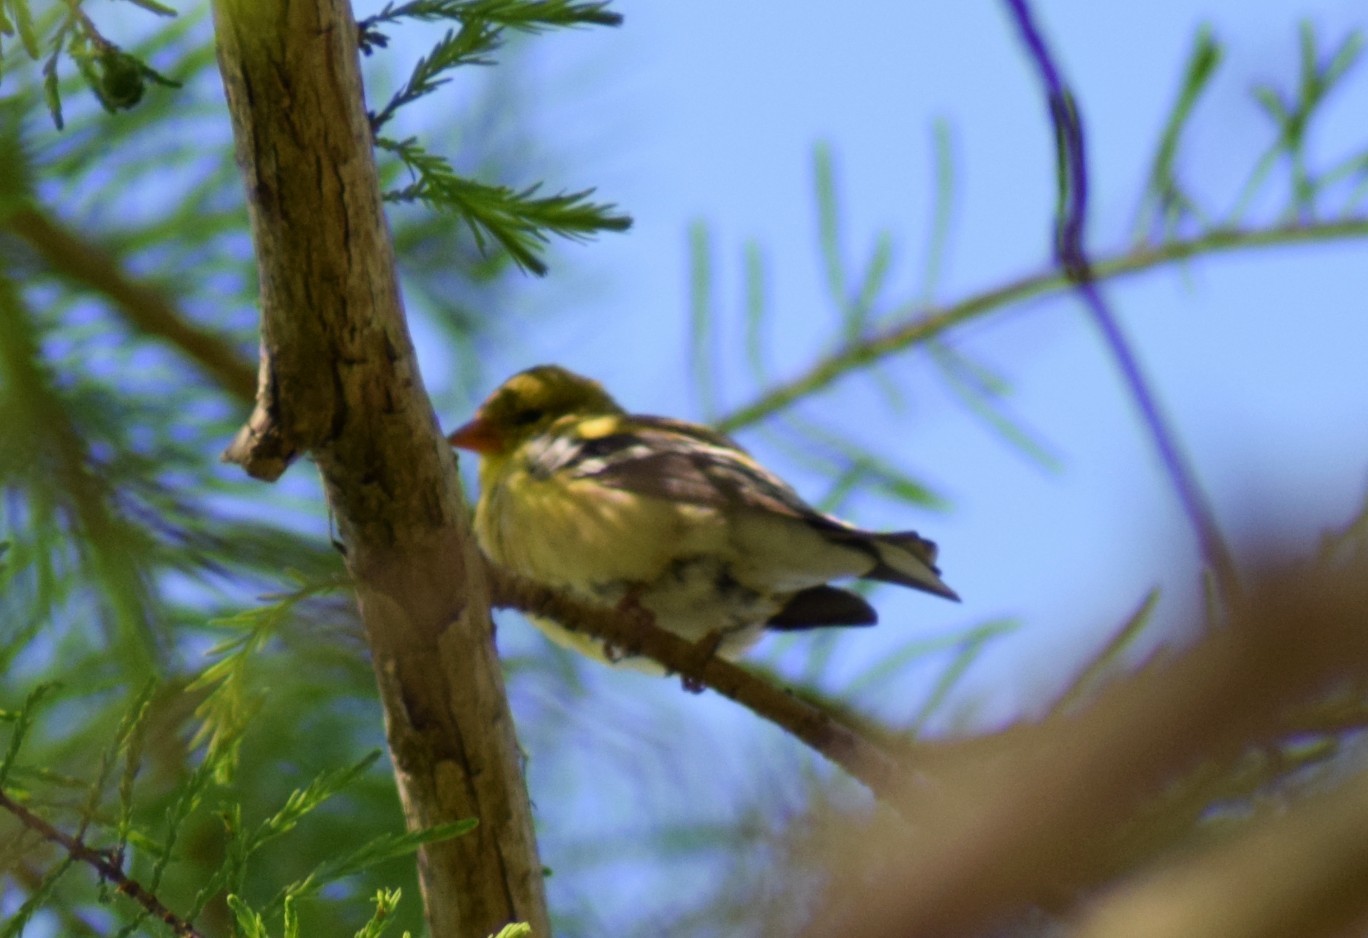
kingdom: Animalia
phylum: Chordata
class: Aves
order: Passeriformes
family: Fringillidae
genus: Spinus
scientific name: Spinus tristis
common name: American goldfinch
